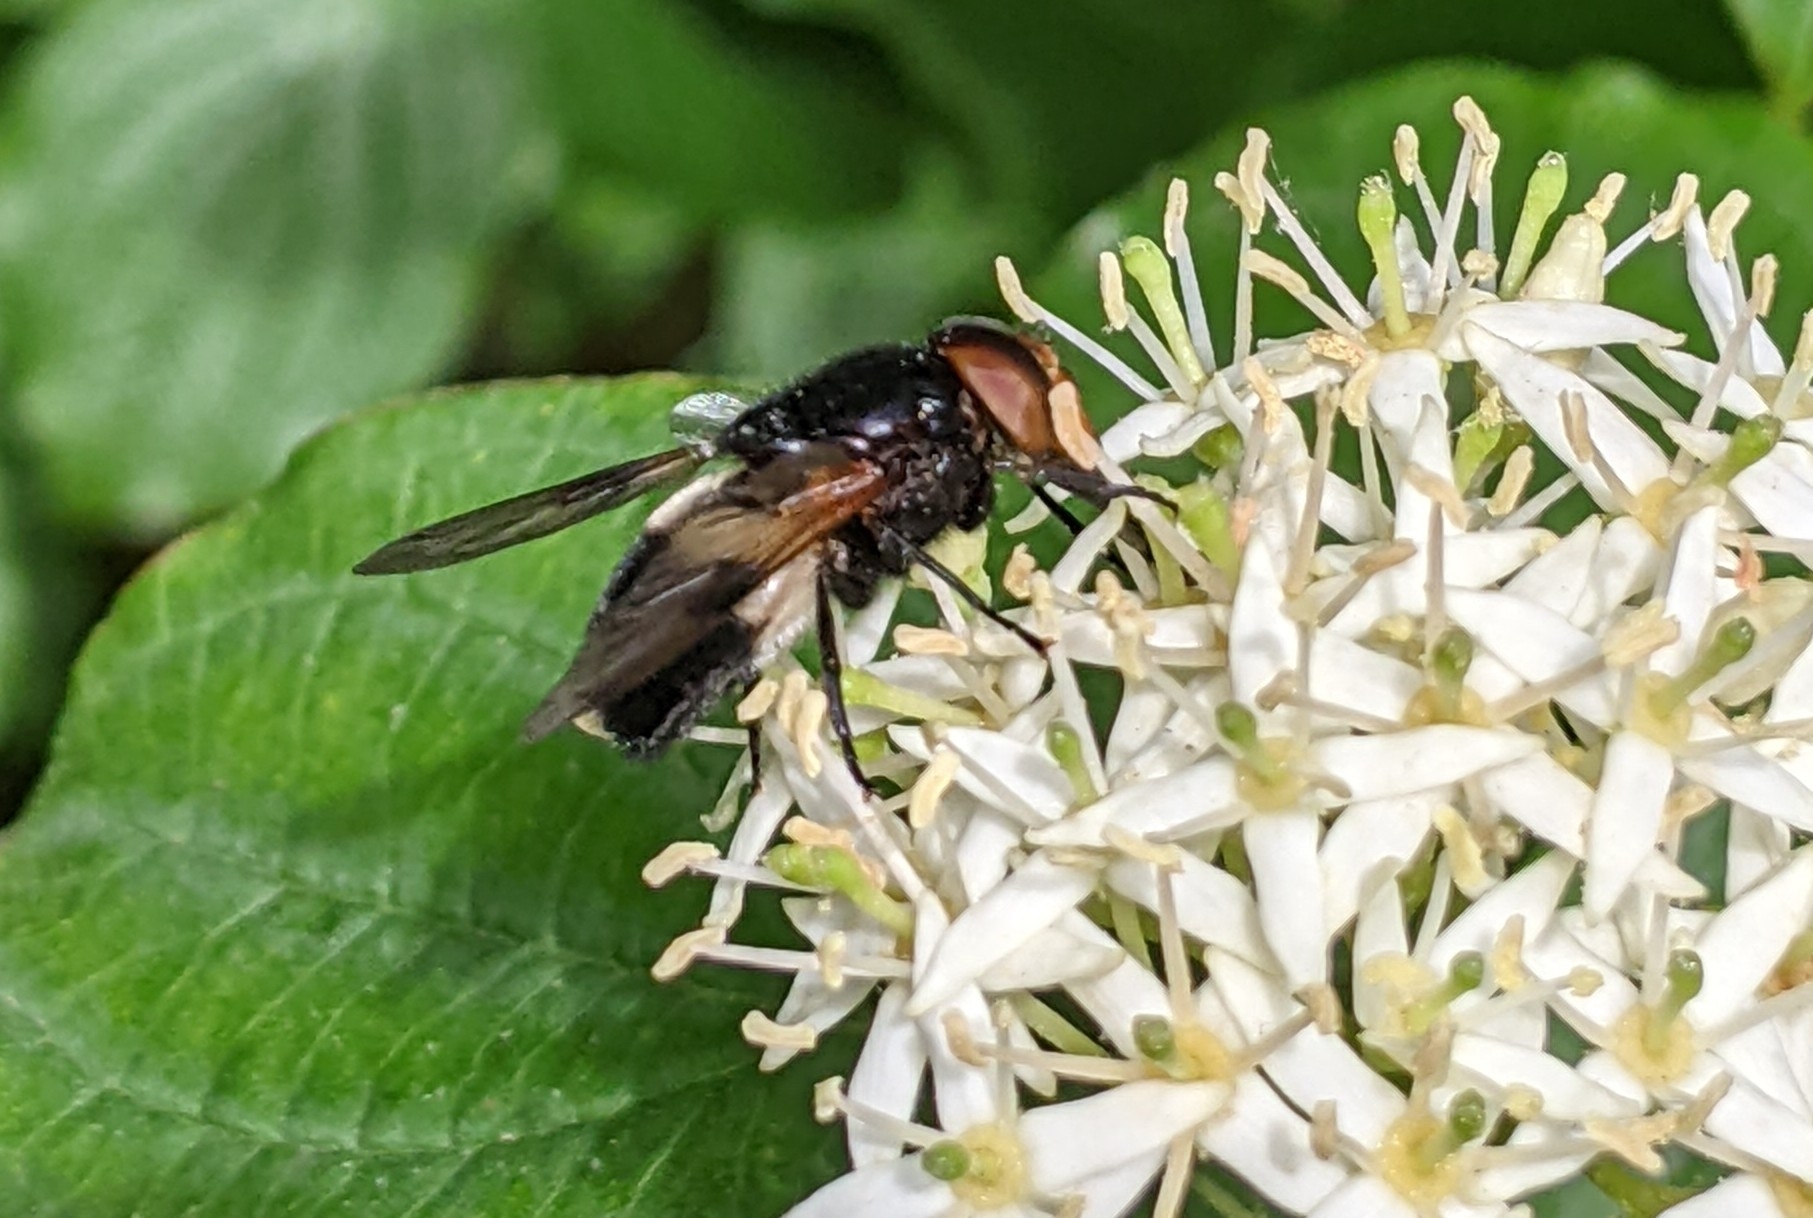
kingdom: Animalia
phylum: Arthropoda
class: Insecta
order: Diptera
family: Syrphidae
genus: Volucella
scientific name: Volucella pellucens
